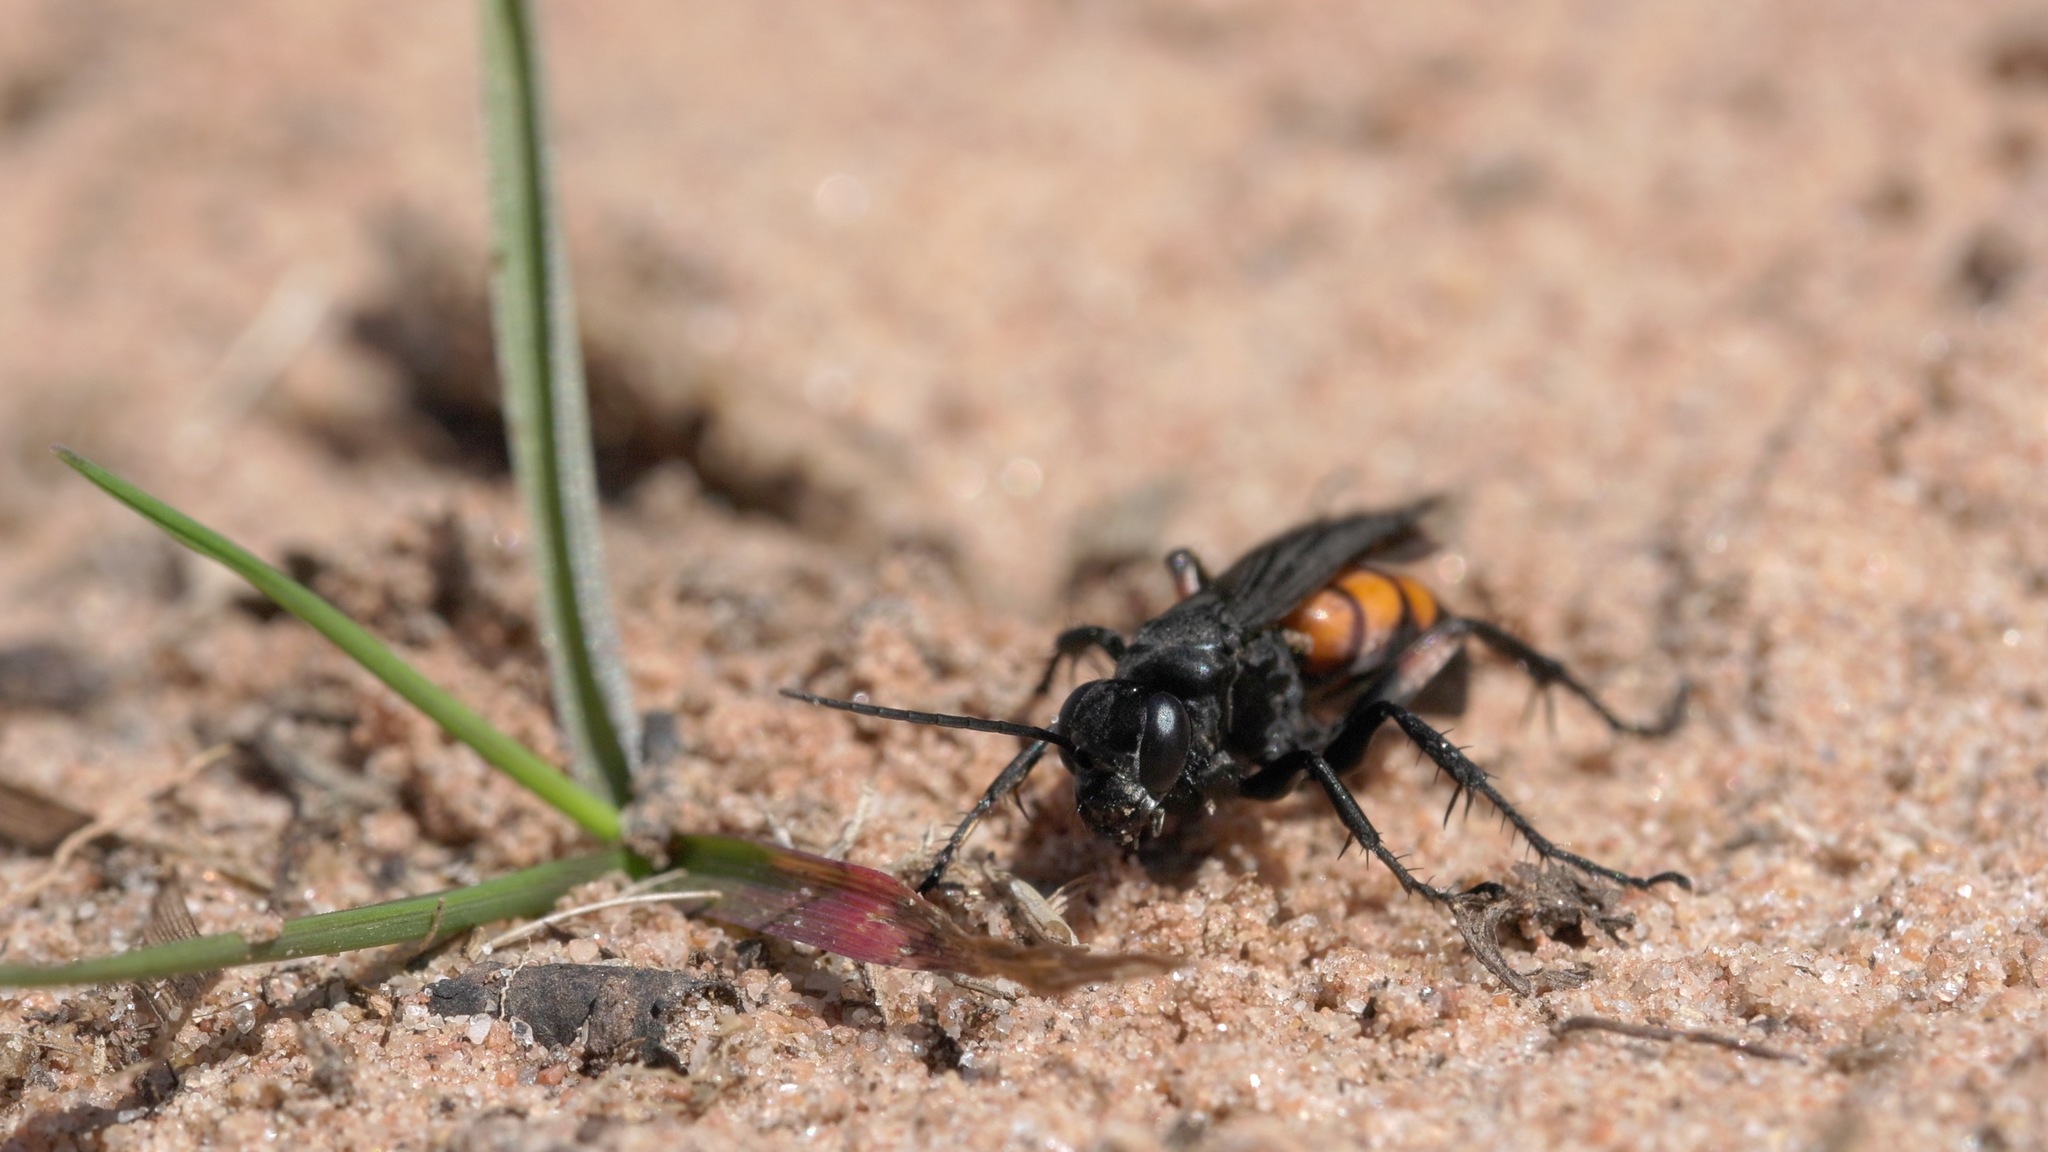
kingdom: Animalia
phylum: Arthropoda
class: Insecta
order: Hymenoptera
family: Pompilidae
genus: Anoplius
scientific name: Anoplius viaticus
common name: Black banded spider wasp
